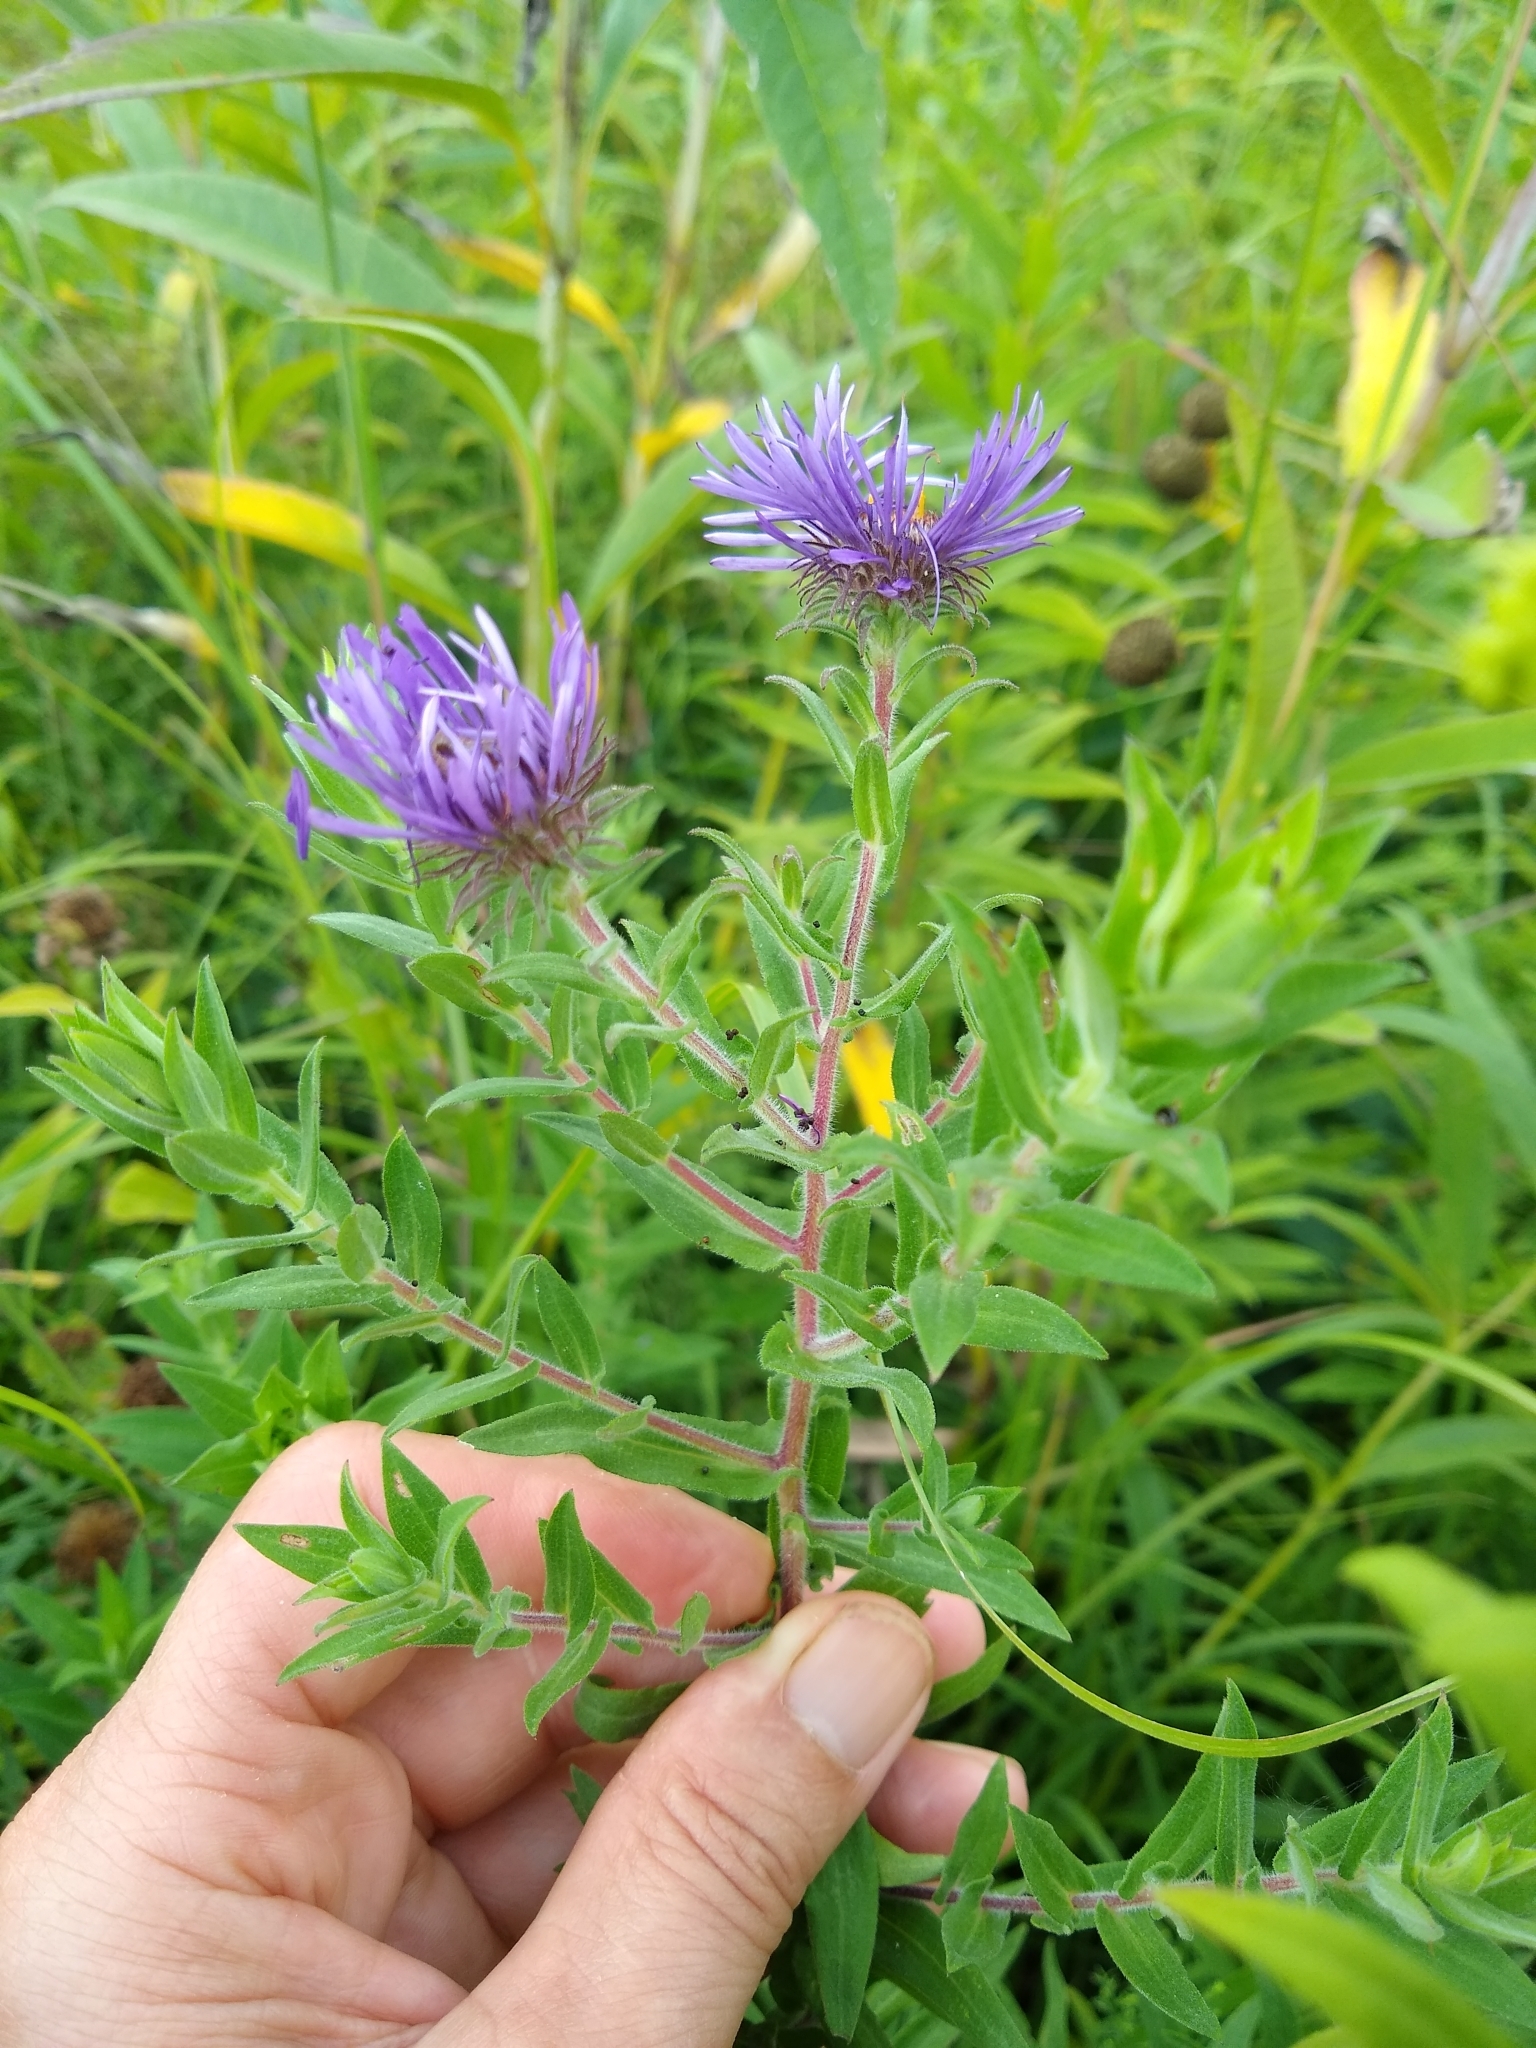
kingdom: Plantae
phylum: Tracheophyta
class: Magnoliopsida
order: Asterales
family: Asteraceae
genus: Symphyotrichum
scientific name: Symphyotrichum novae-angliae
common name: Michaelmas daisy
